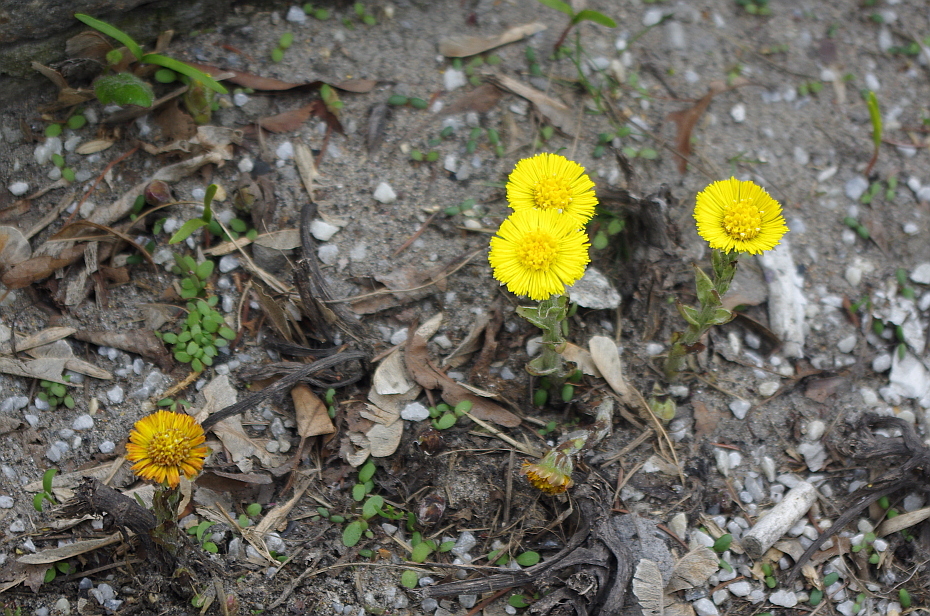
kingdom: Plantae
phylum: Tracheophyta
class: Magnoliopsida
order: Asterales
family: Asteraceae
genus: Tussilago
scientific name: Tussilago farfara
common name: Coltsfoot
